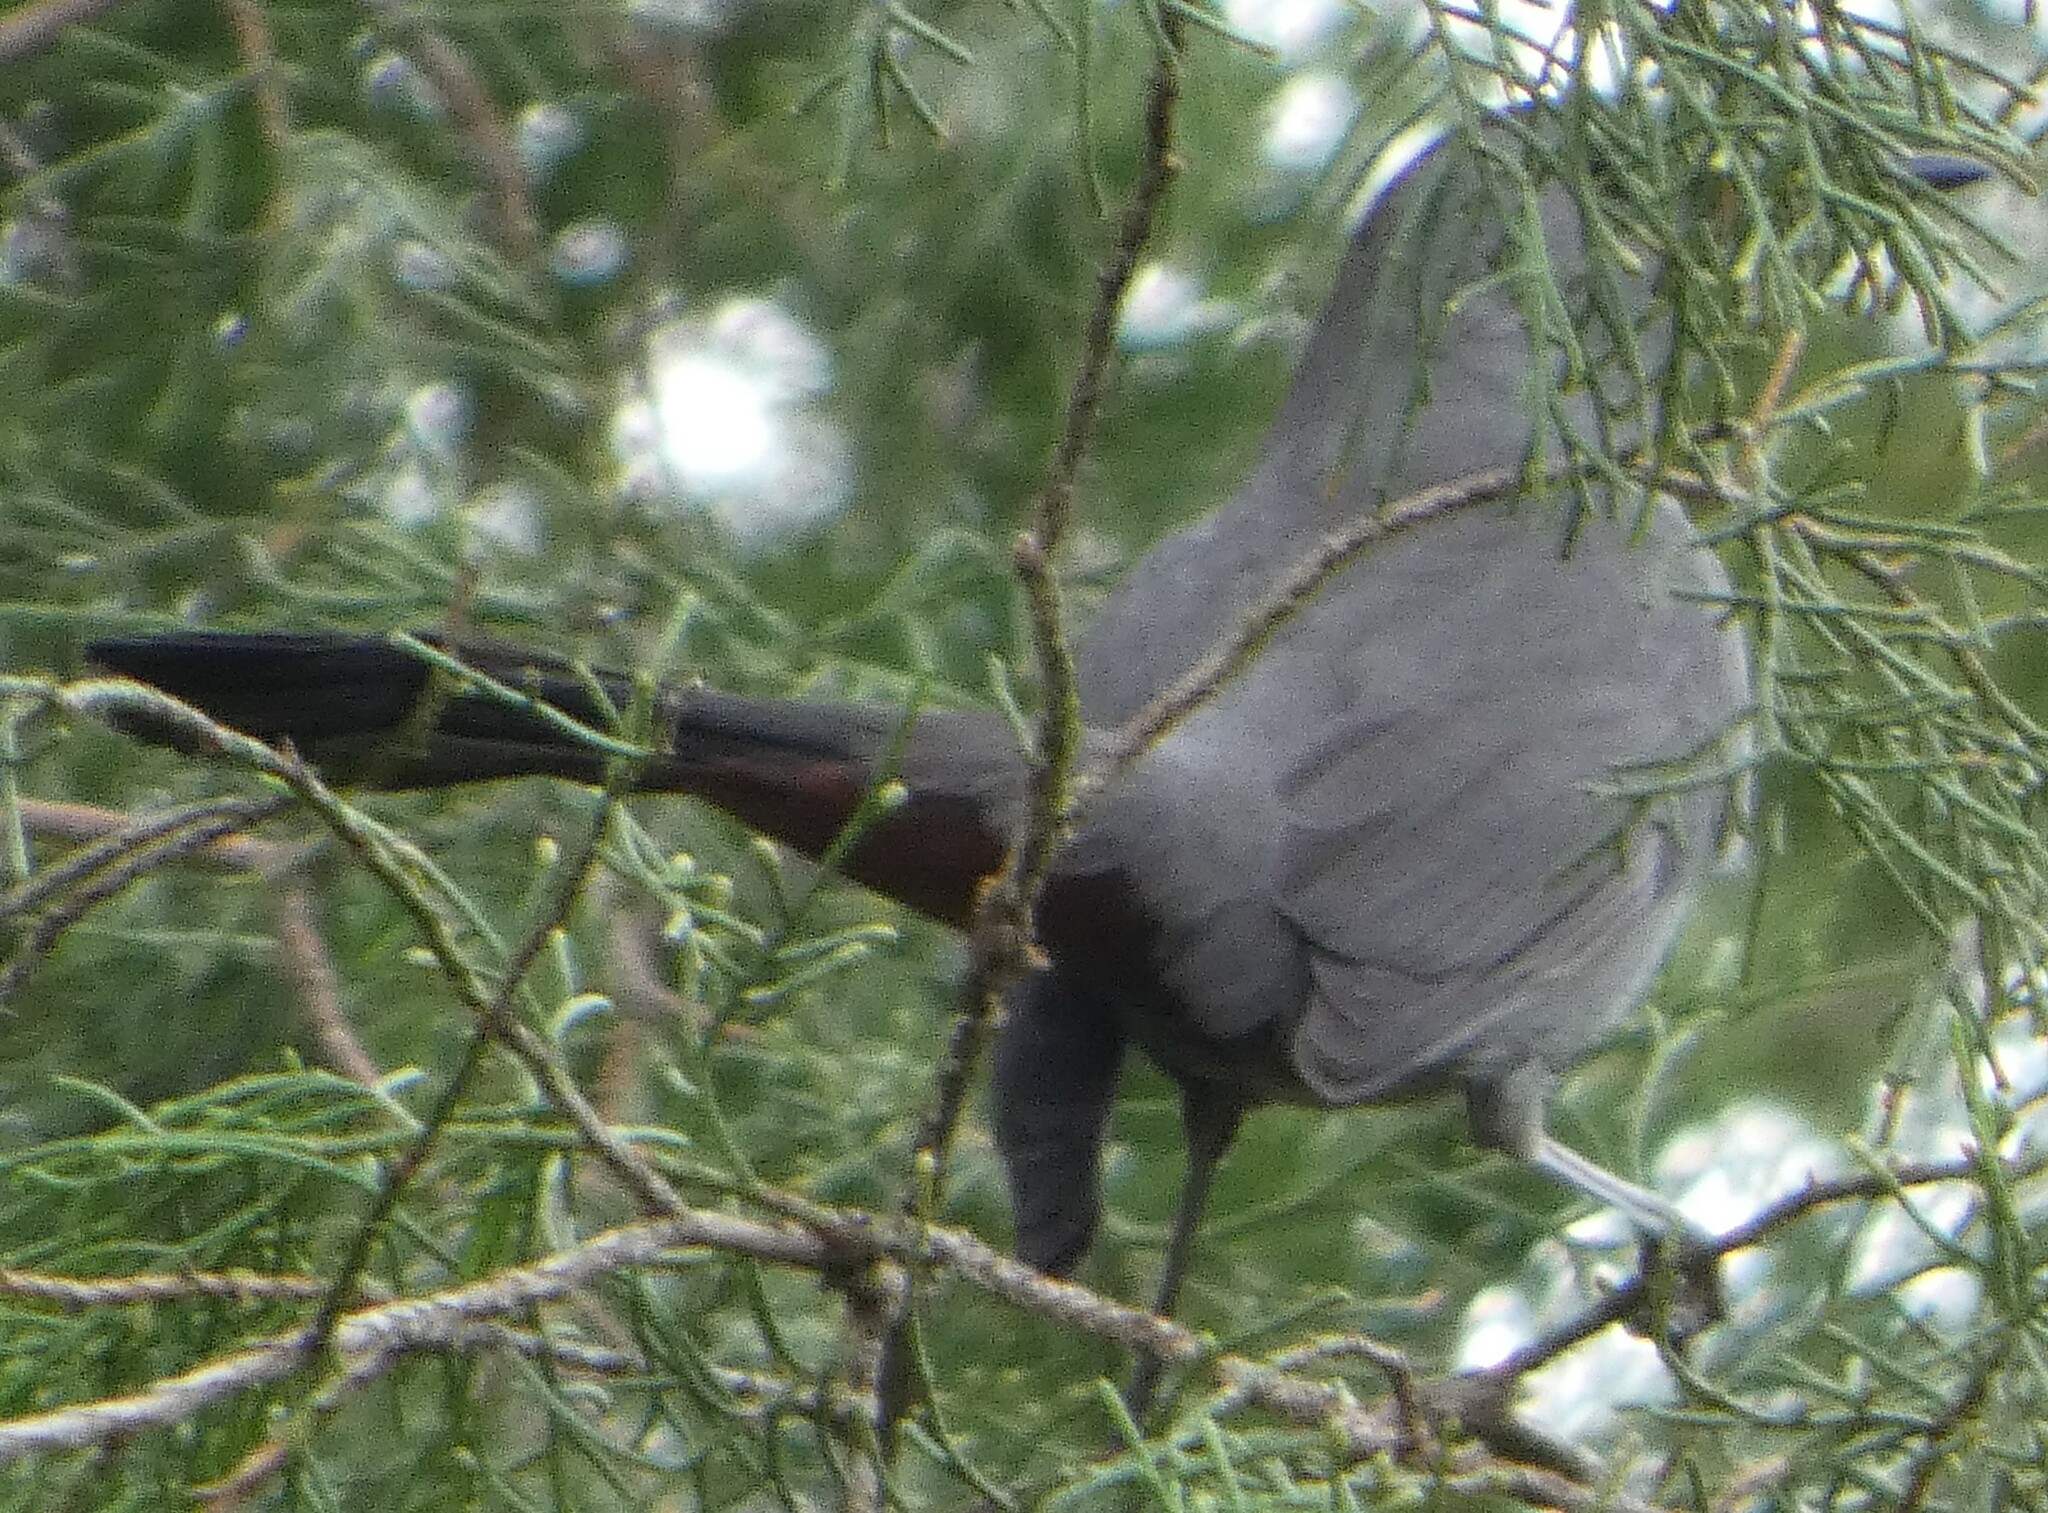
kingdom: Animalia
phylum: Chordata
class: Aves
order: Passeriformes
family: Mimidae
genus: Dumetella
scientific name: Dumetella carolinensis
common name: Gray catbird
